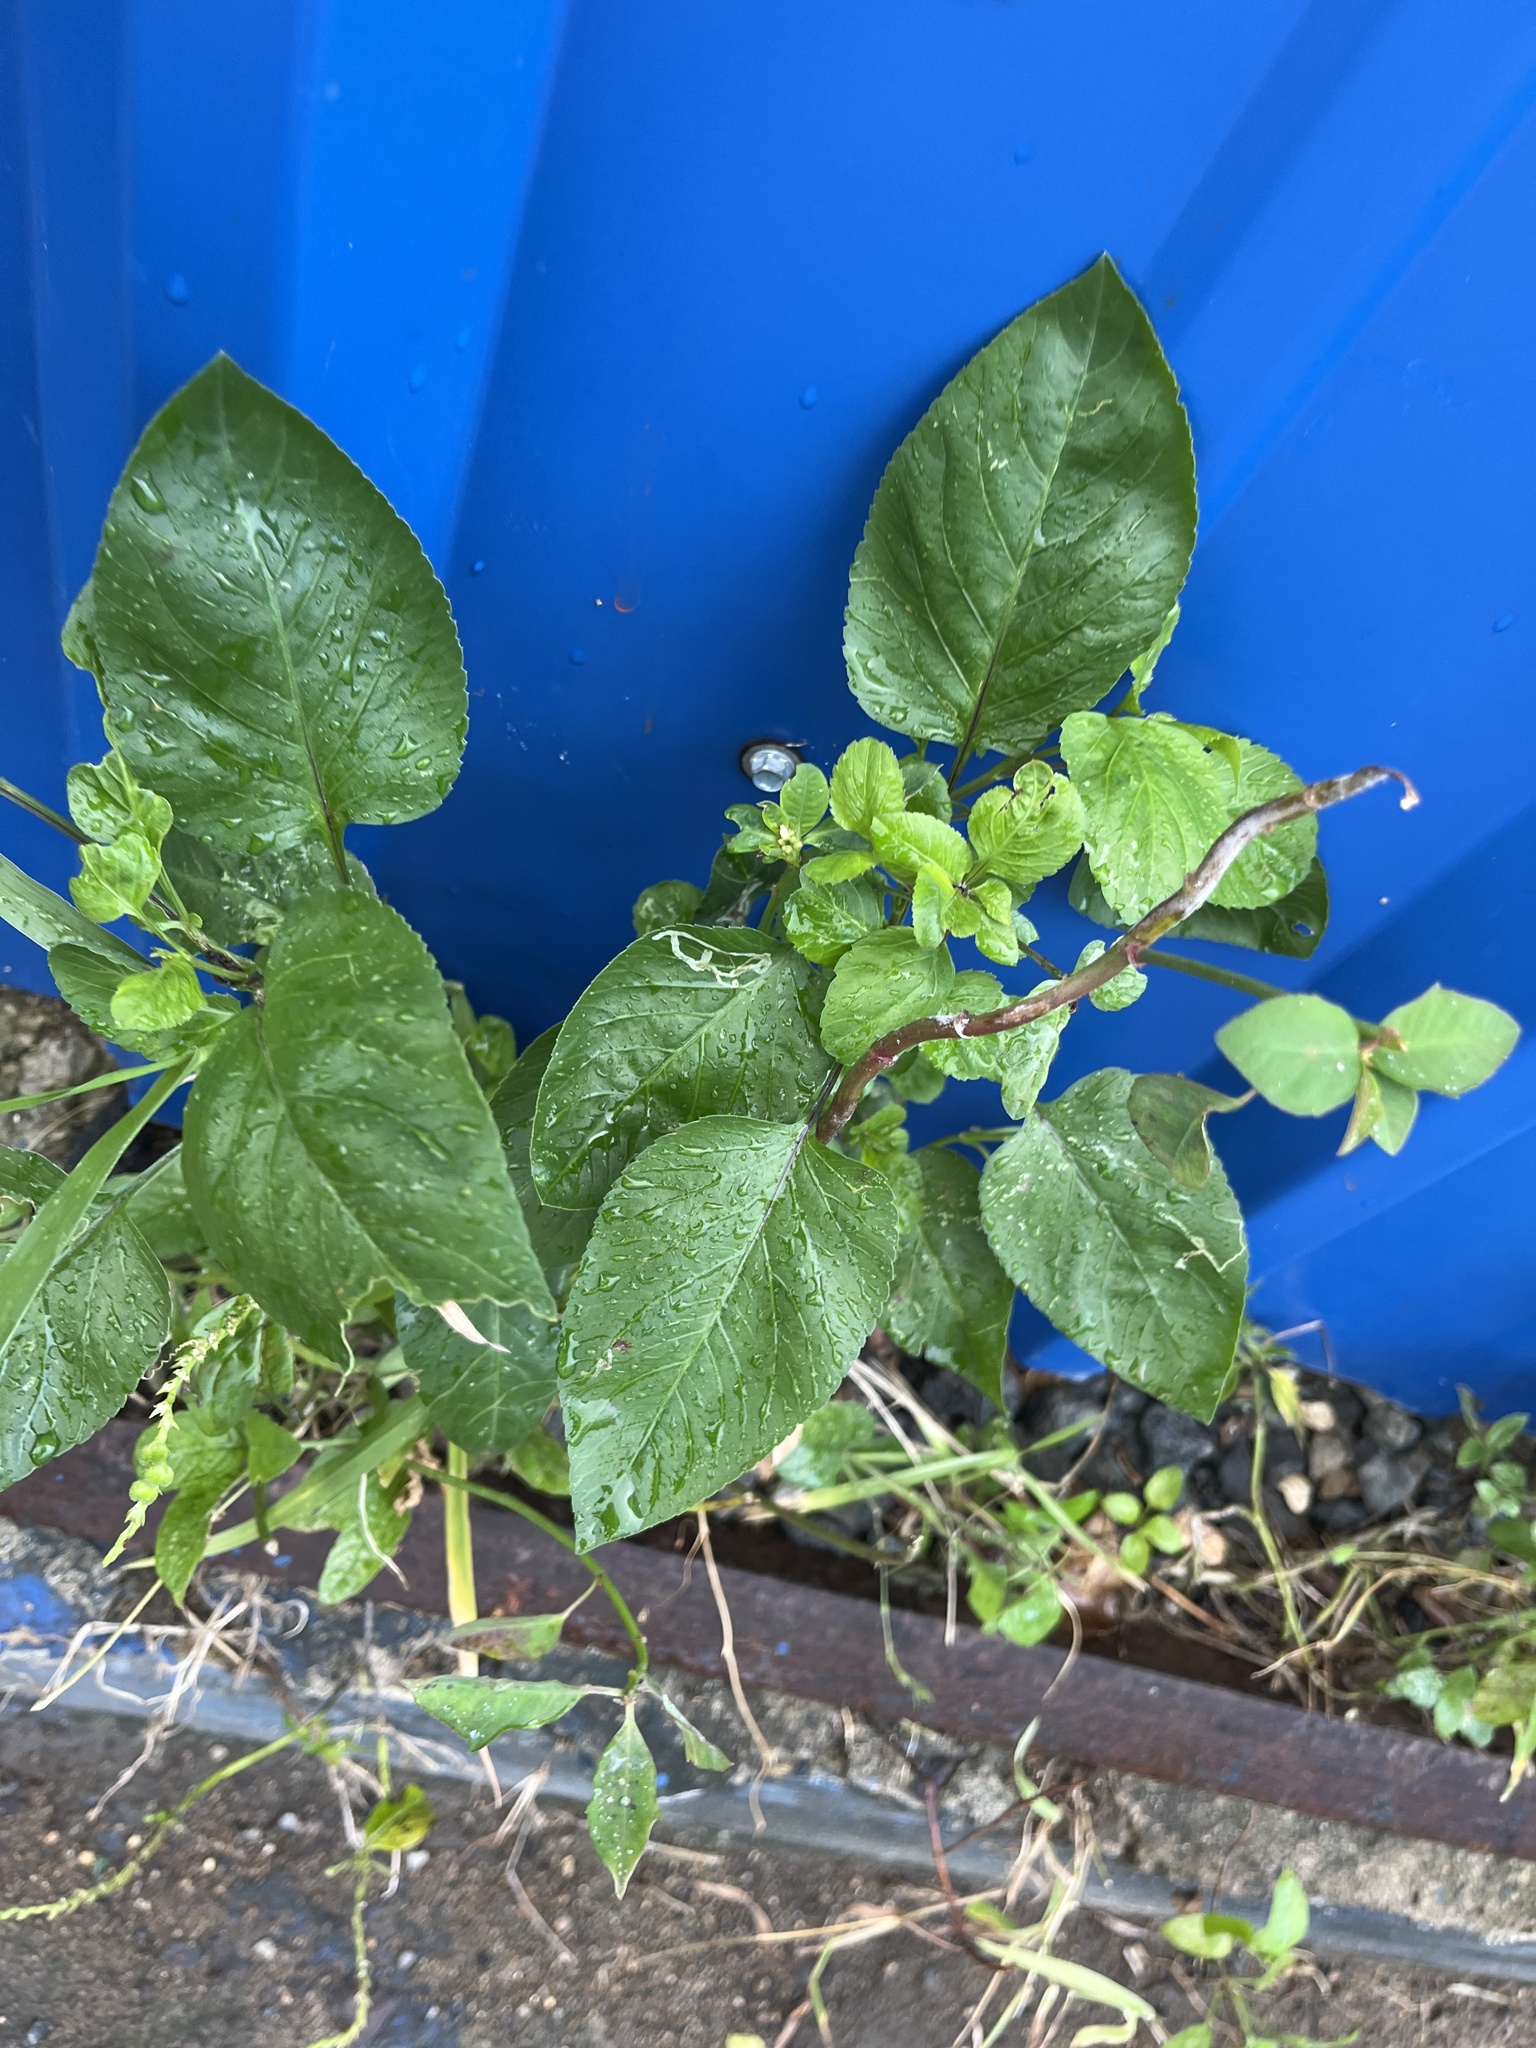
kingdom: Plantae
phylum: Tracheophyta
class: Magnoliopsida
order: Asterales
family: Asteraceae
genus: Bidens
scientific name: Bidens alba
